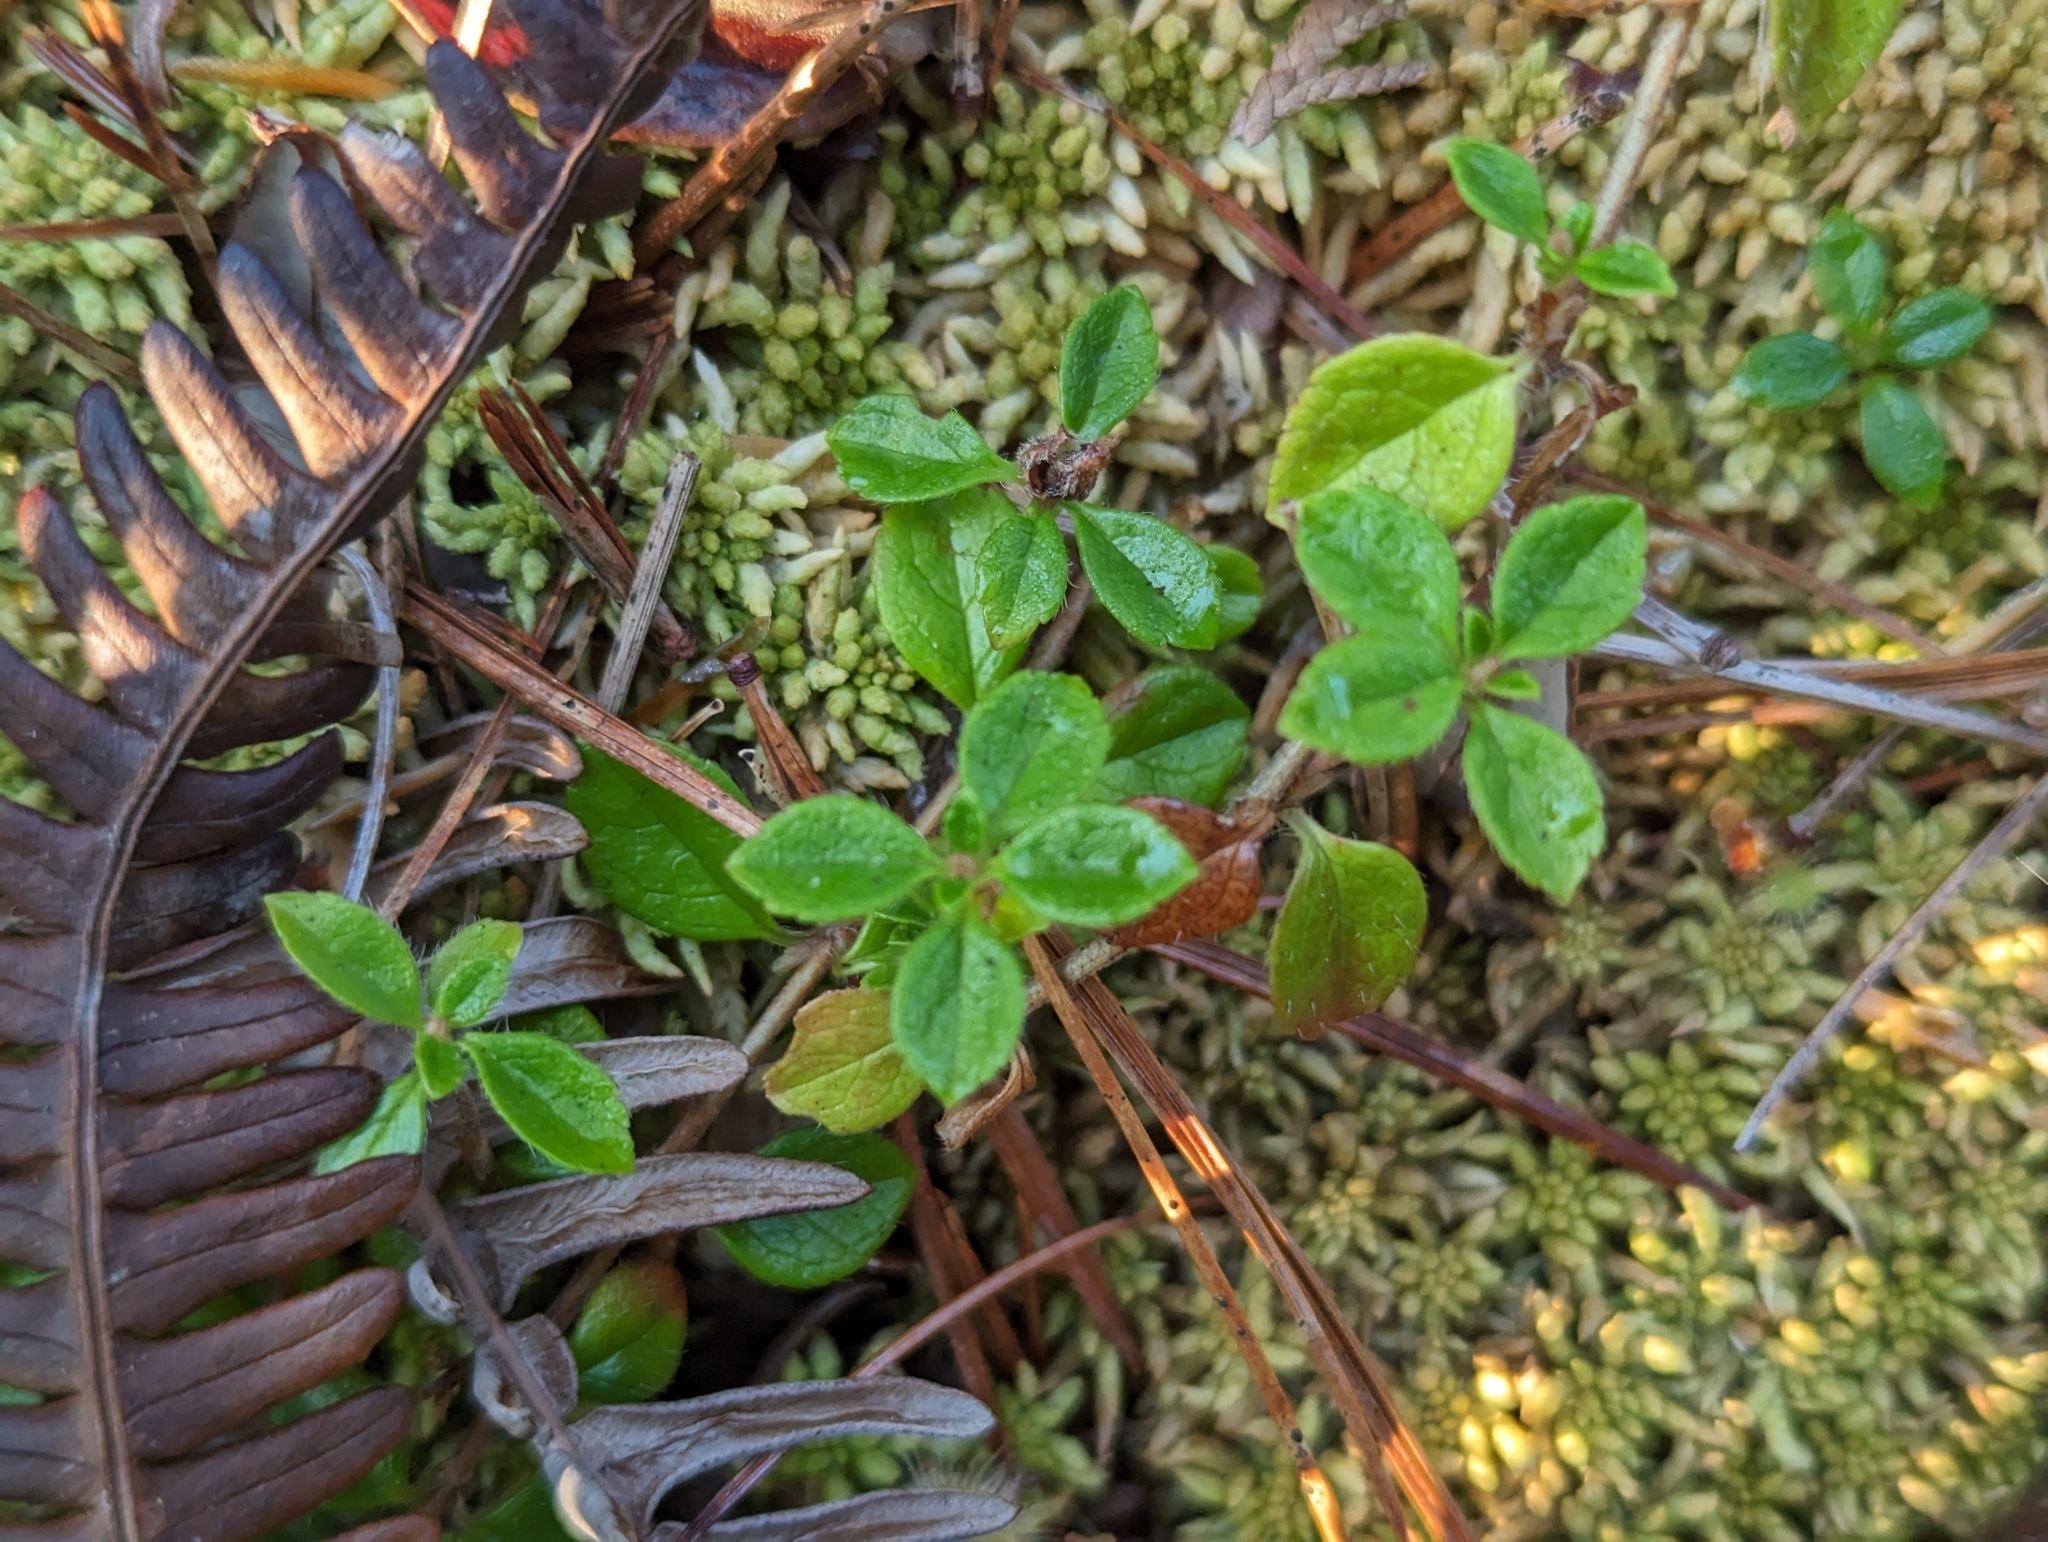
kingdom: Plantae
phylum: Tracheophyta
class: Magnoliopsida
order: Dipsacales
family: Caprifoliaceae
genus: Linnaea
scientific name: Linnaea borealis
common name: Twinflower
